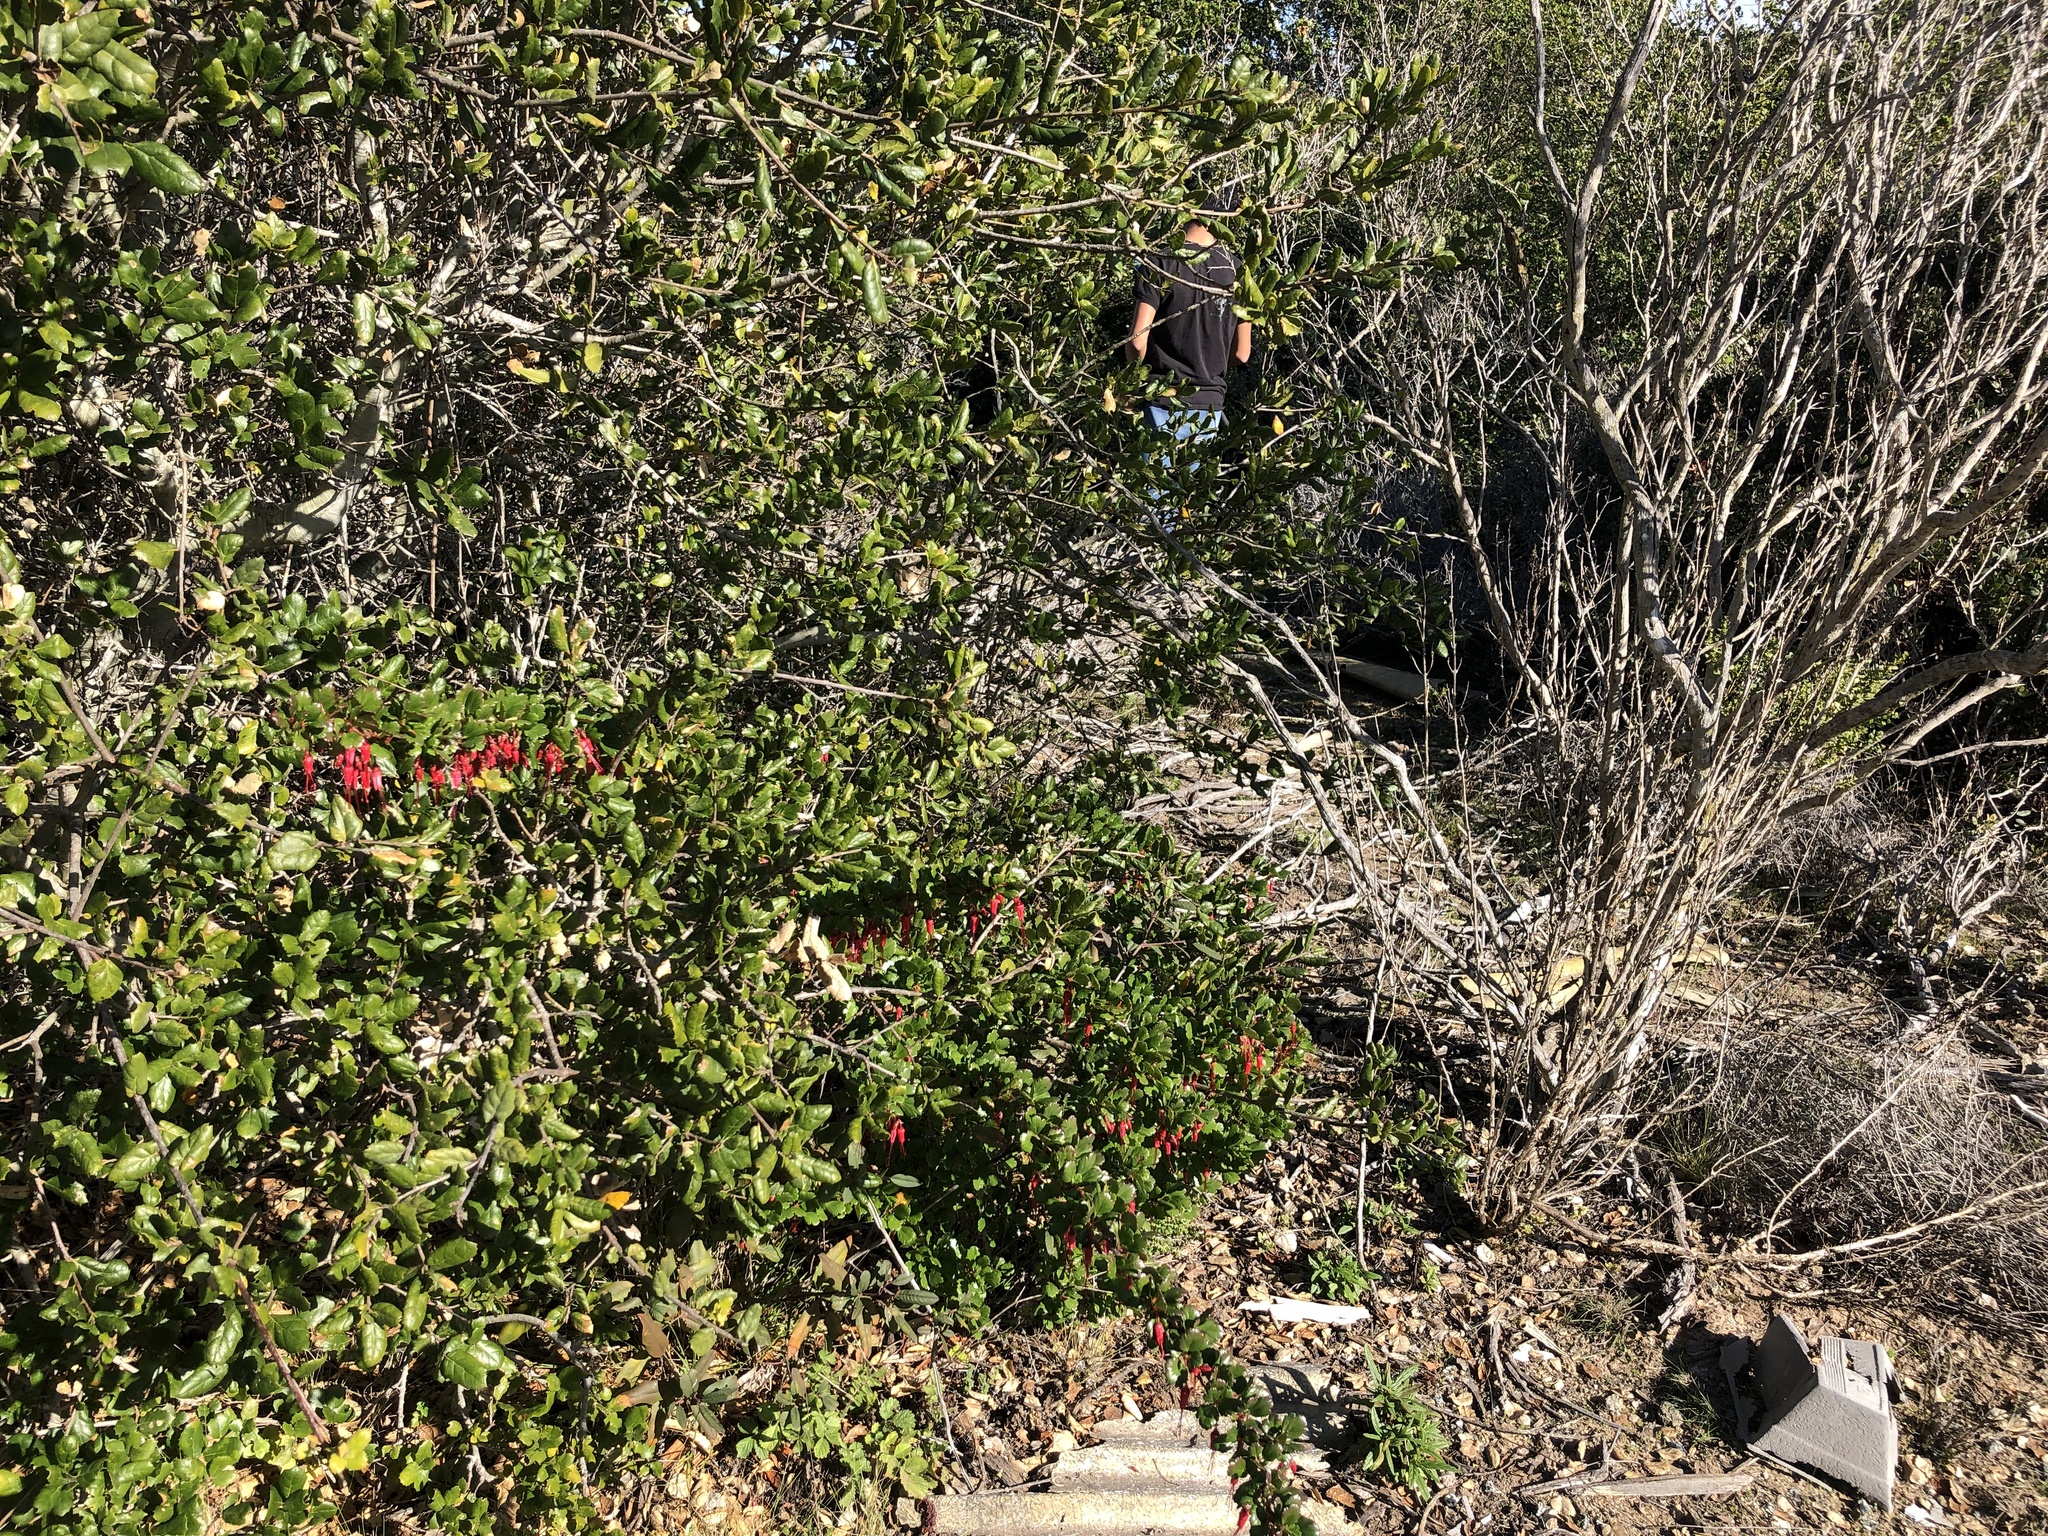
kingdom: Plantae
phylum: Tracheophyta
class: Magnoliopsida
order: Saxifragales
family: Grossulariaceae
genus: Ribes
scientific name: Ribes speciosum
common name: Fuchsia-flower gooseberry
